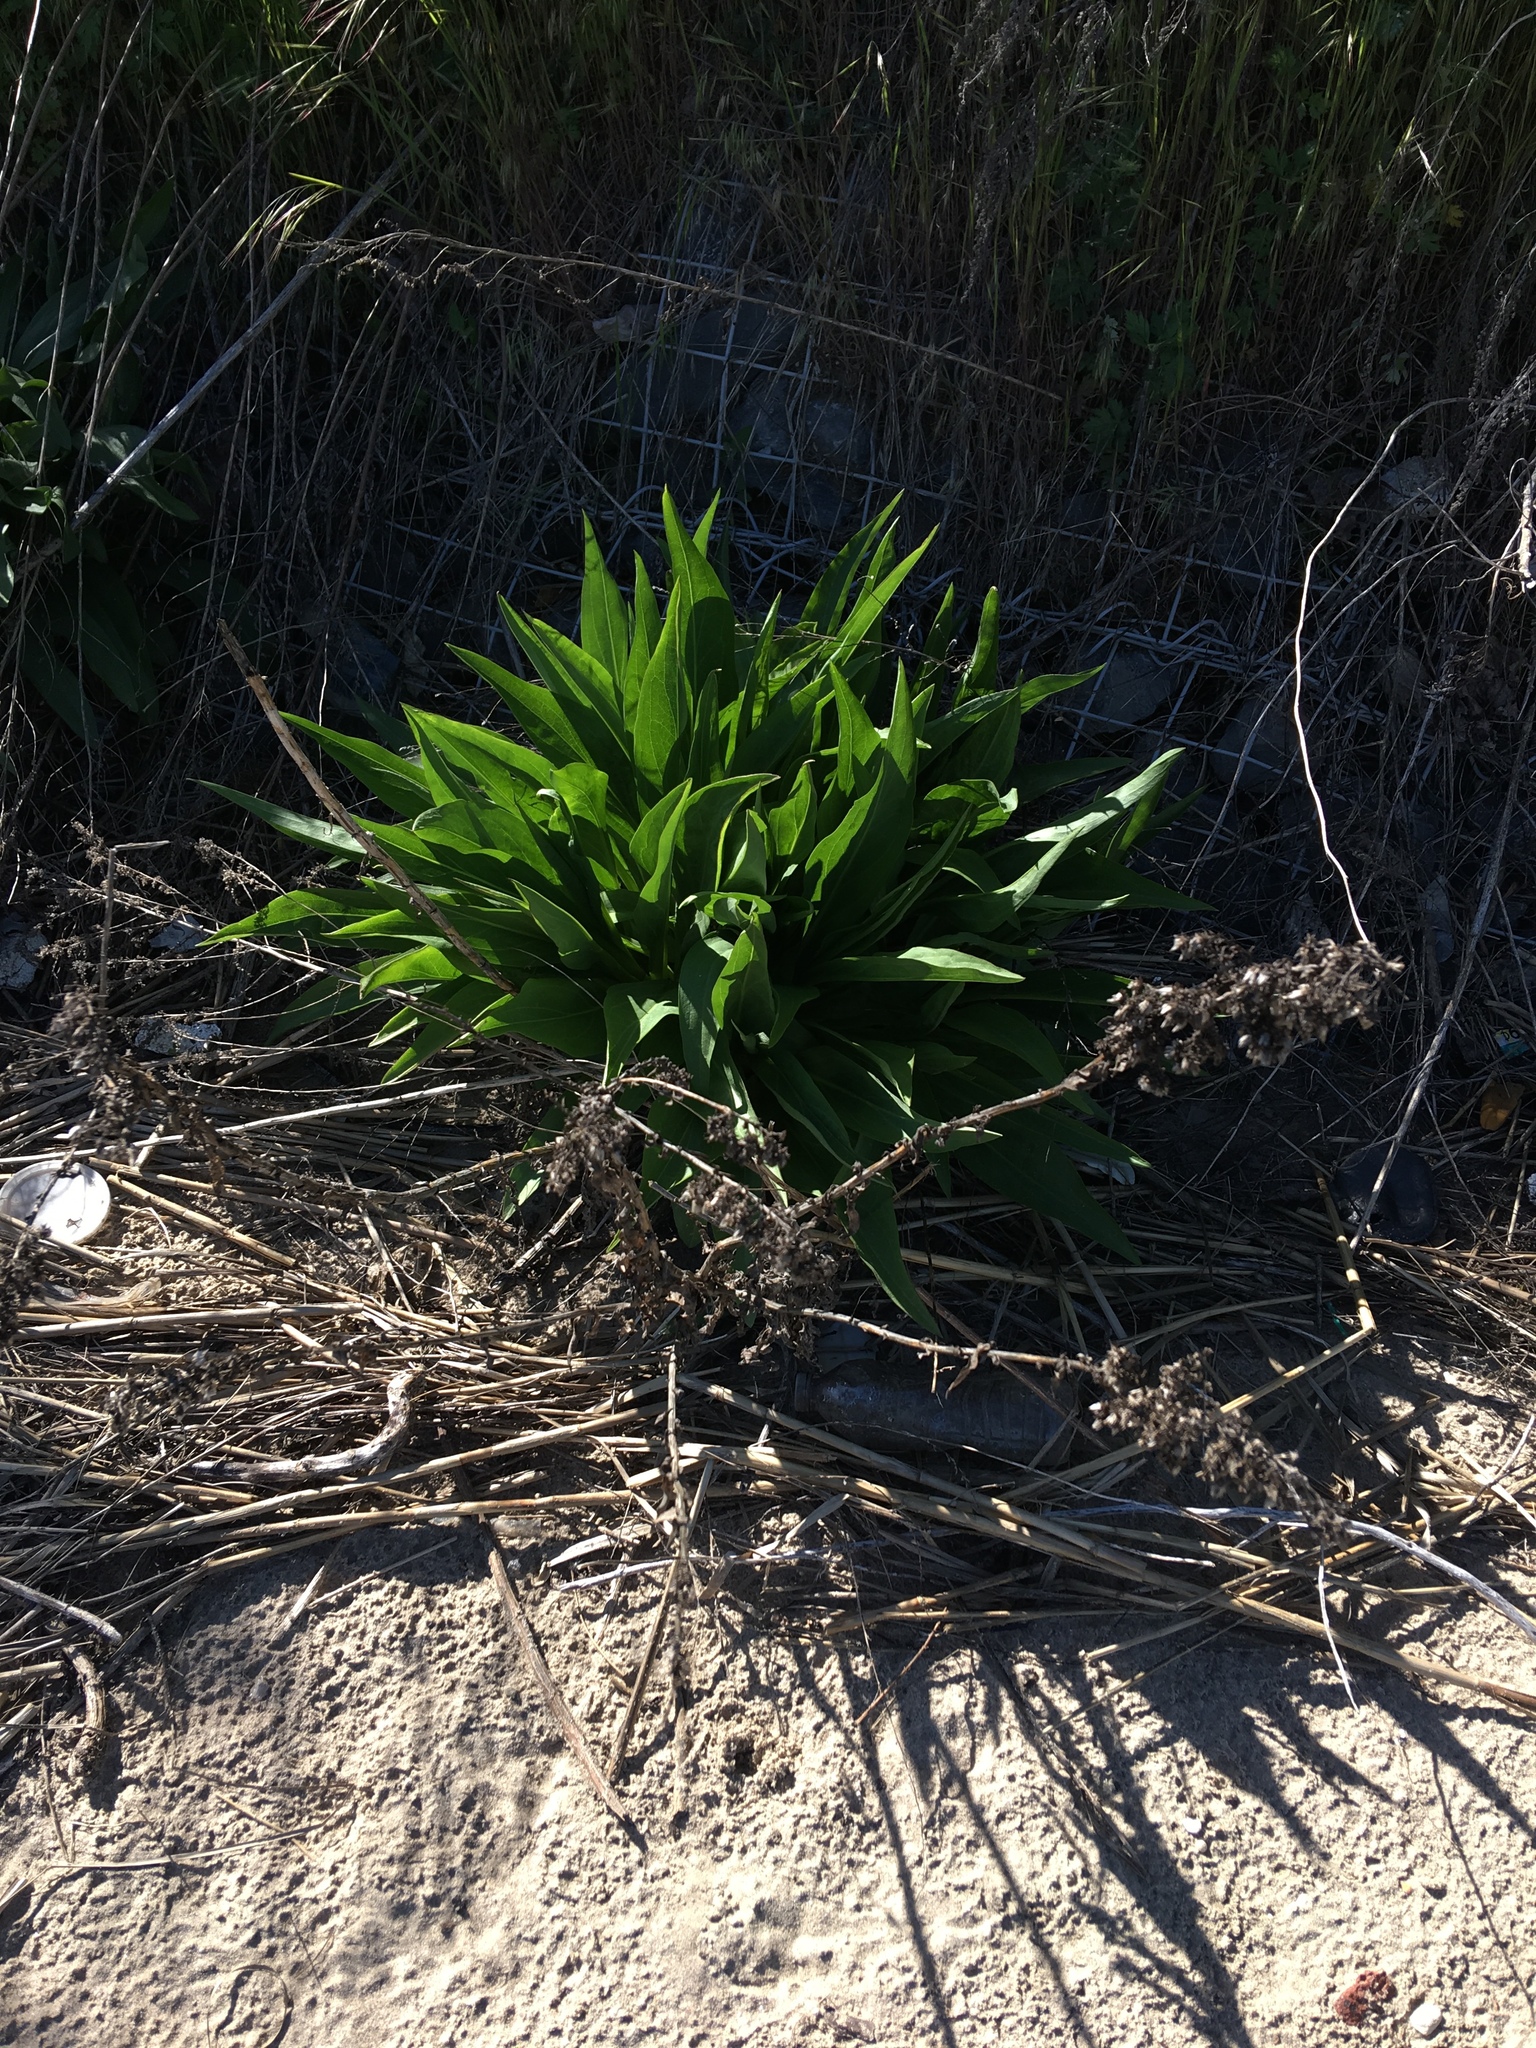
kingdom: Plantae
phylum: Tracheophyta
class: Magnoliopsida
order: Asterales
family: Asteraceae
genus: Solidago
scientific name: Solidago sempervirens
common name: Salt-marsh goldenrod
